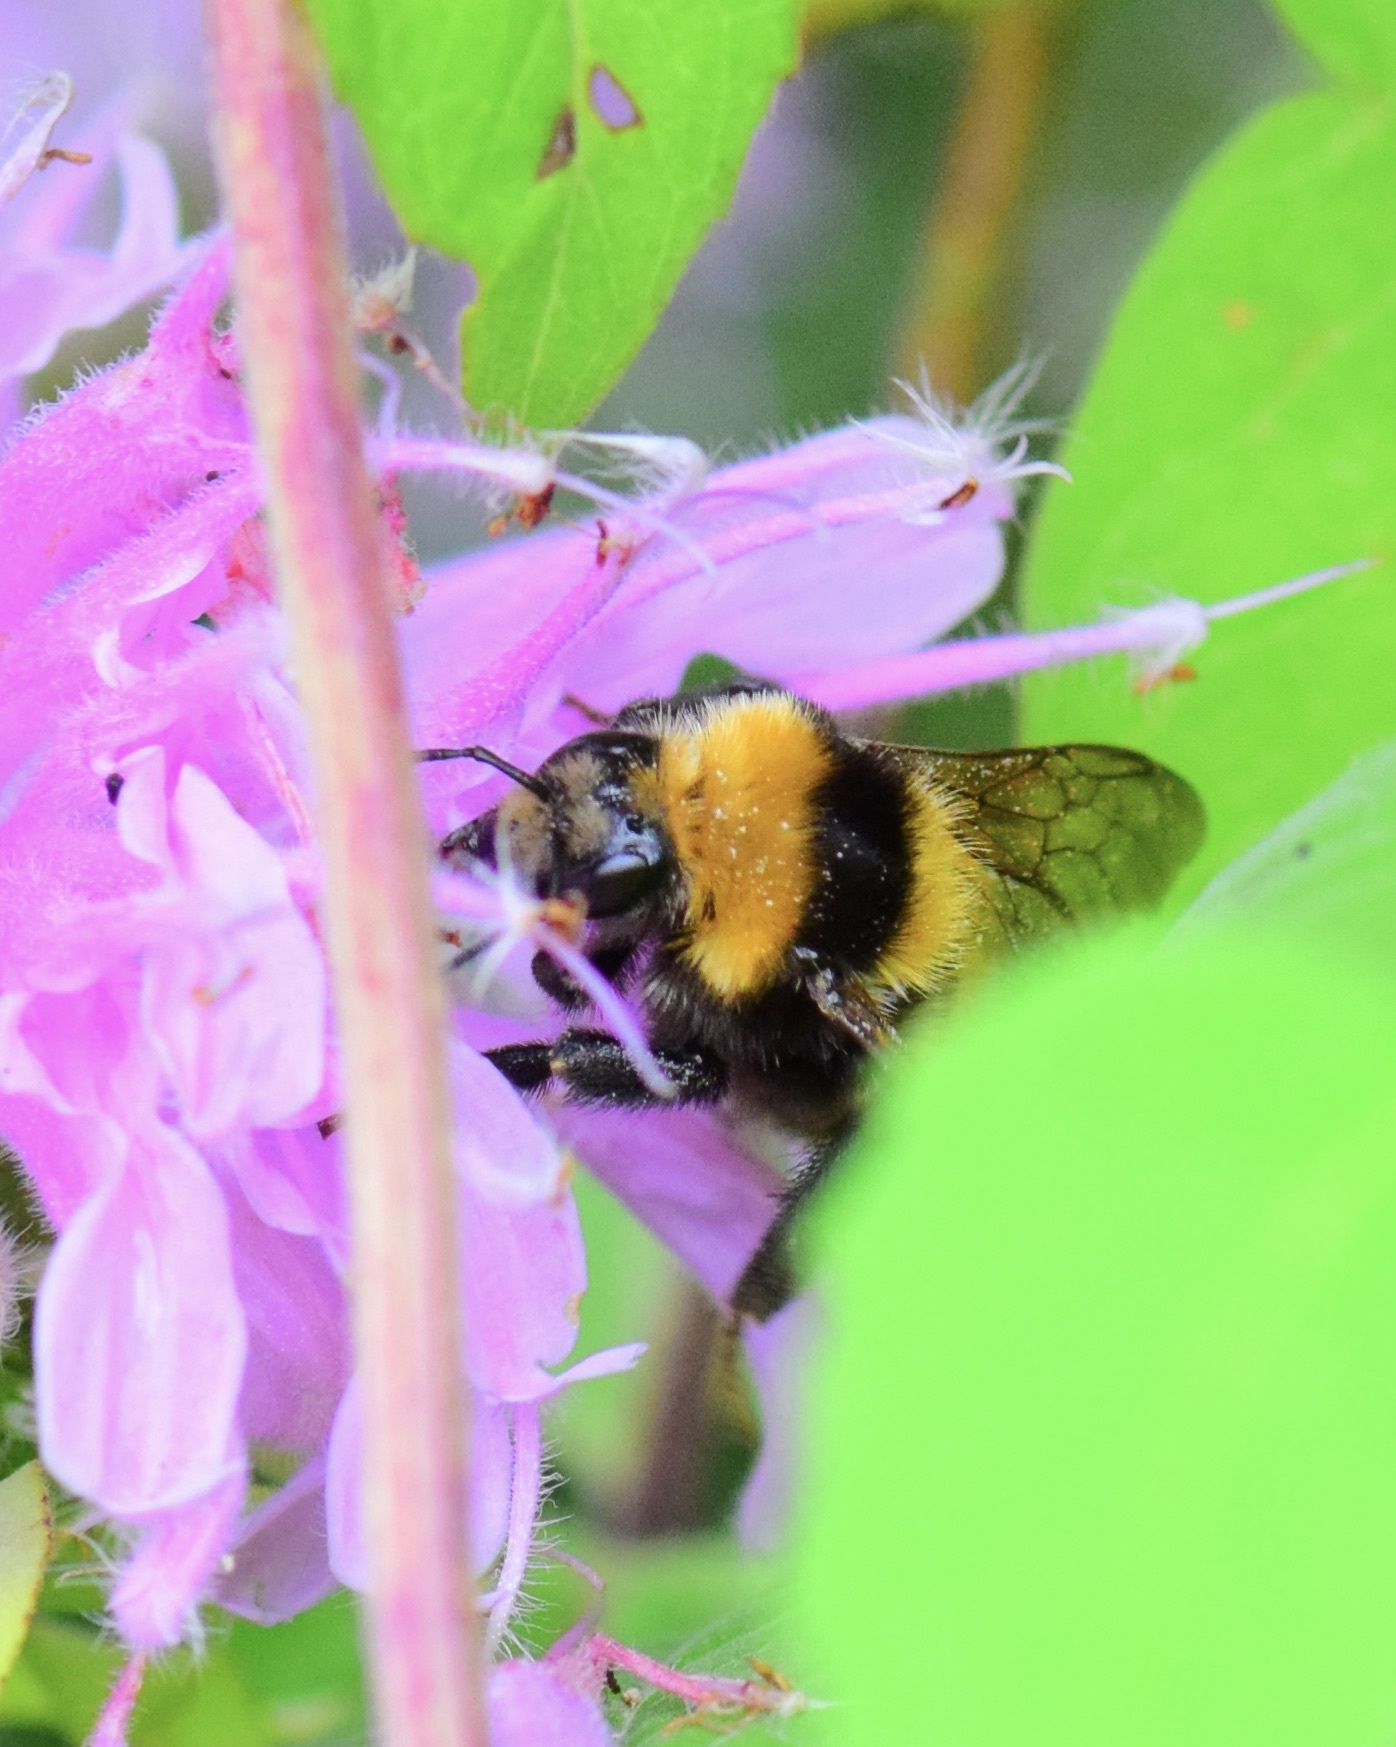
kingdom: Animalia
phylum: Arthropoda
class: Insecta
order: Hymenoptera
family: Apidae
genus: Bombus
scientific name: Bombus borealis
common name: Northern amber bumble bee
